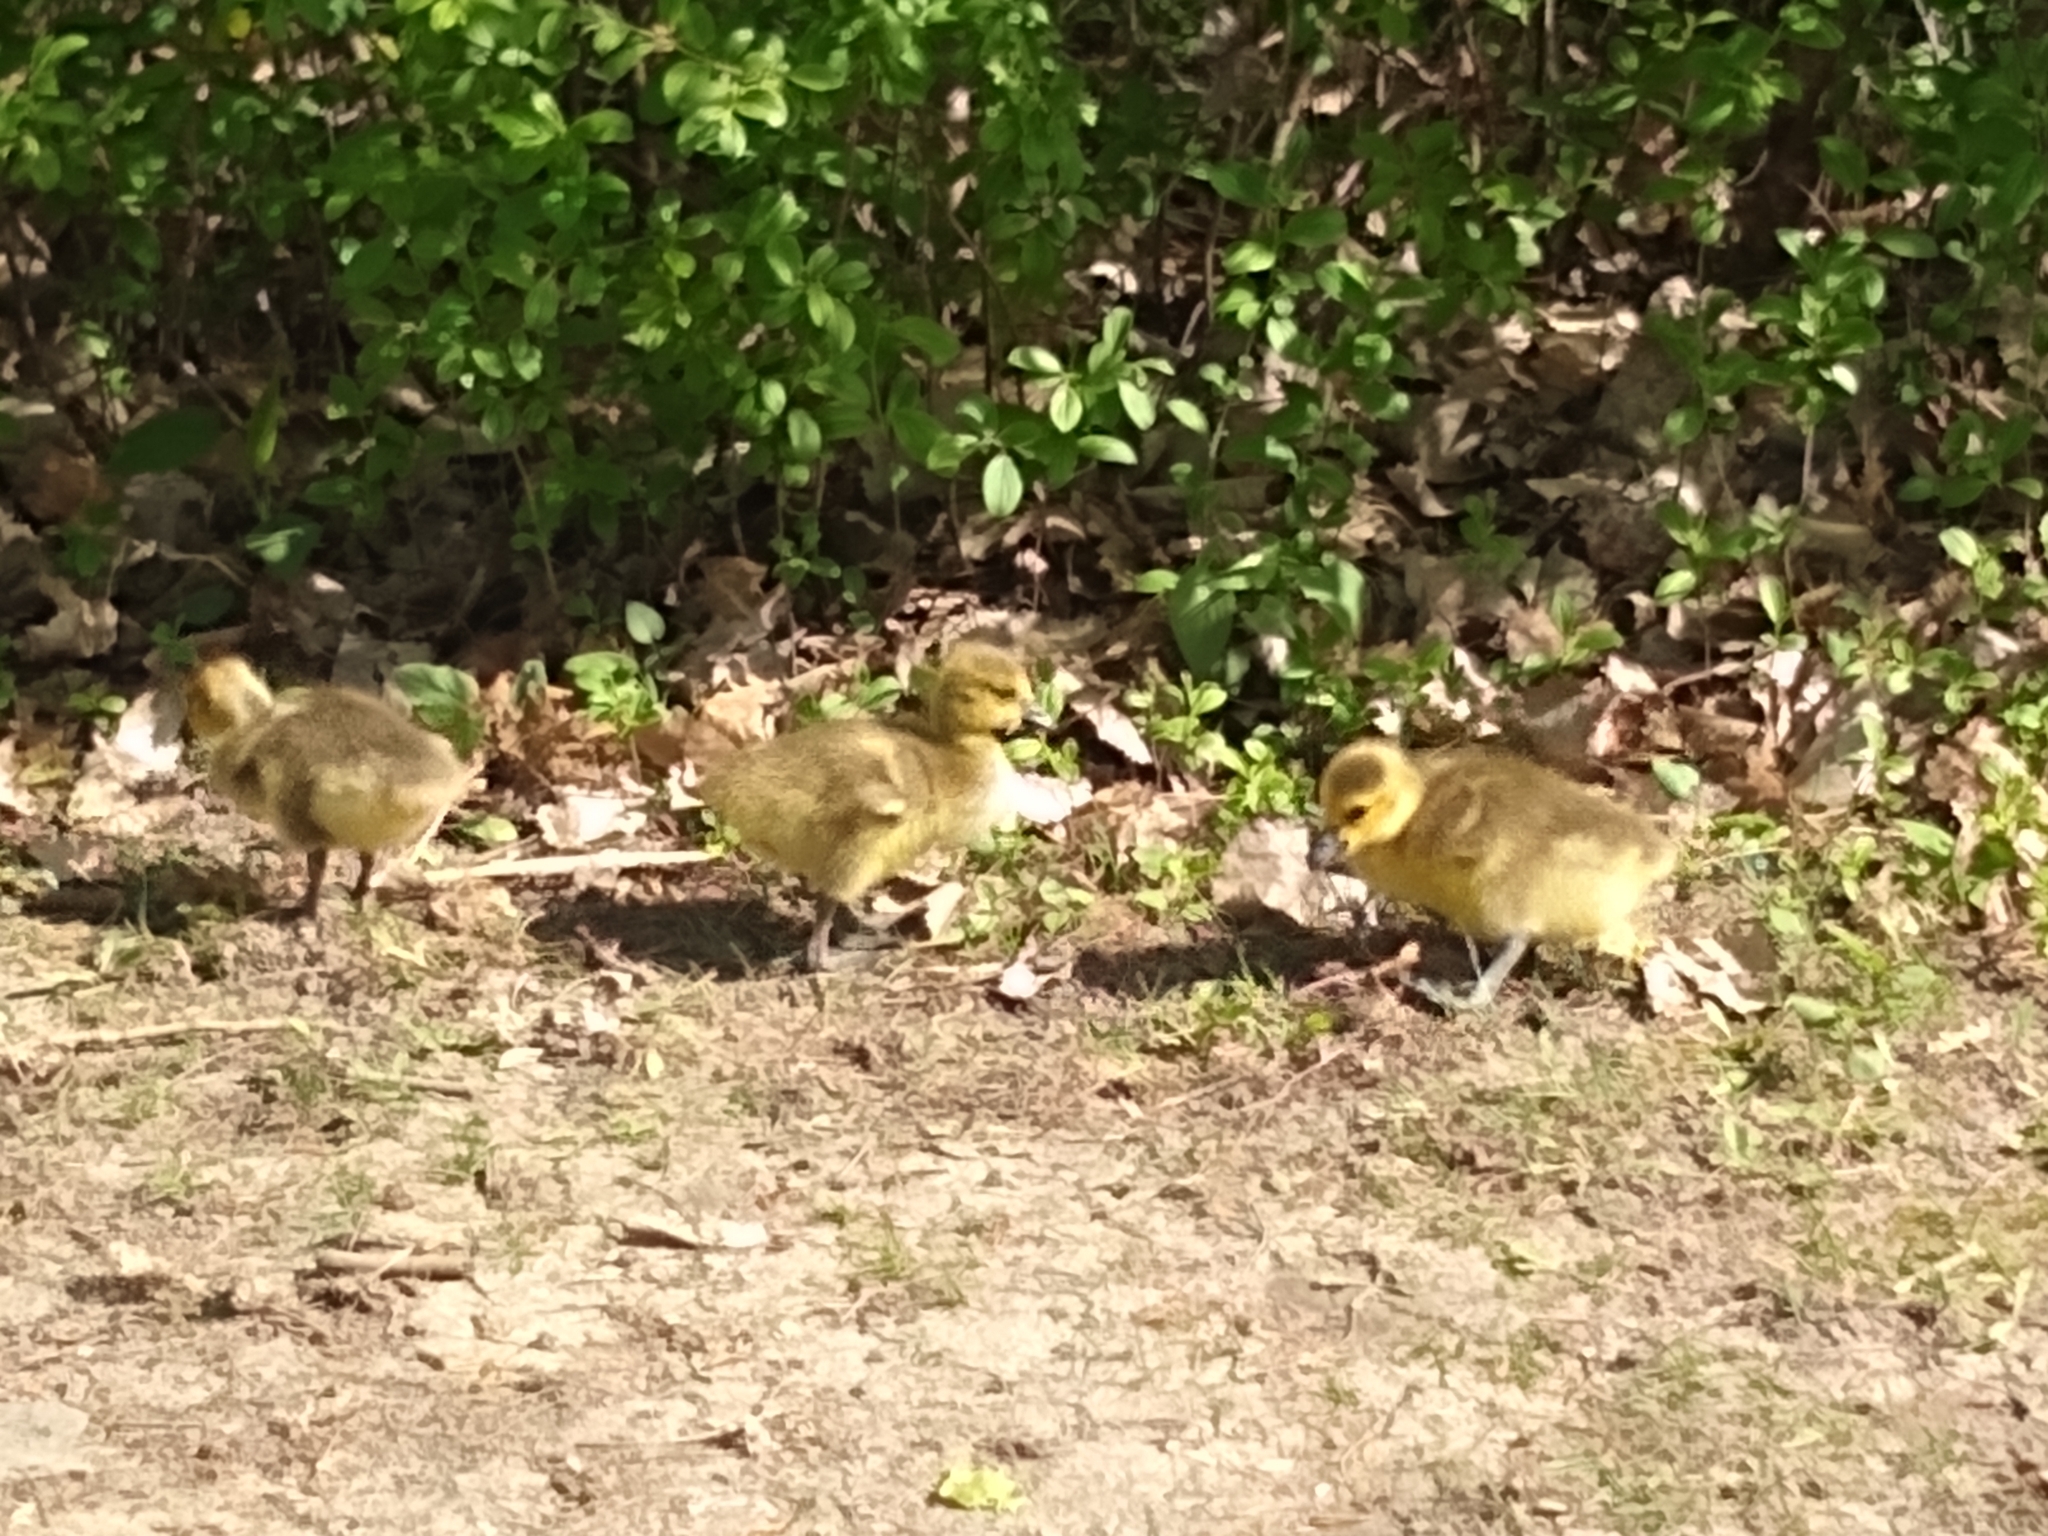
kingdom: Animalia
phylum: Chordata
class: Aves
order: Anseriformes
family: Anatidae
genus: Branta
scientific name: Branta canadensis
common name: Canada goose
